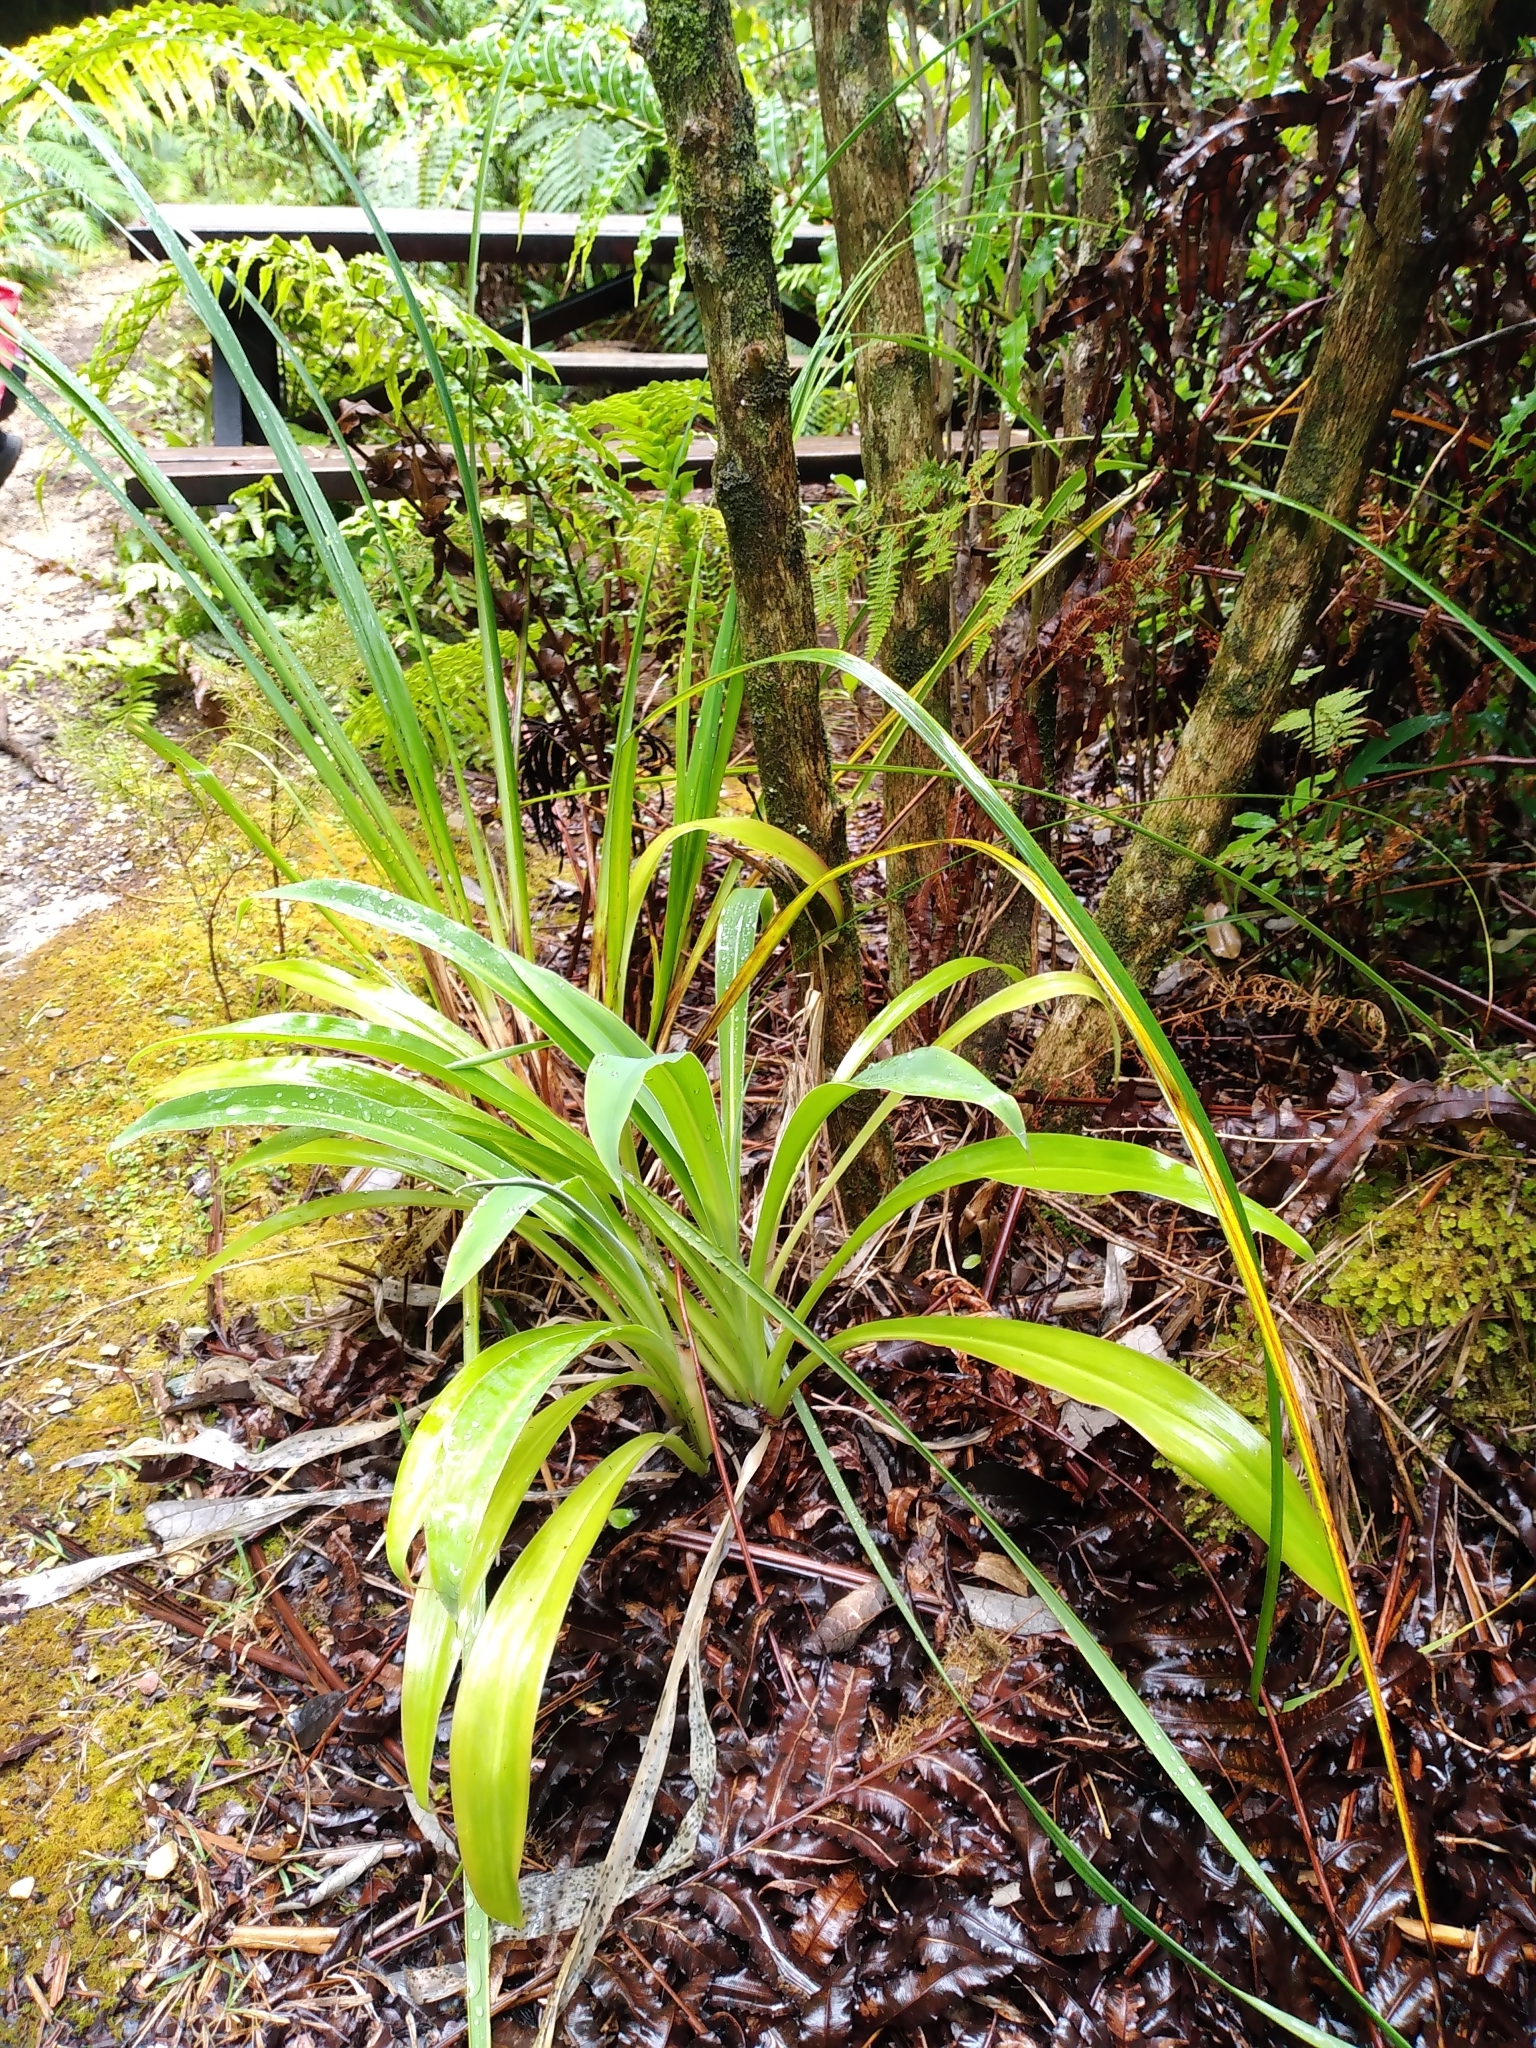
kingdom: Plantae
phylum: Tracheophyta
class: Liliopsida
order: Asparagales
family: Asparagaceae
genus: Arthropodium
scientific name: Arthropodium cirratum
